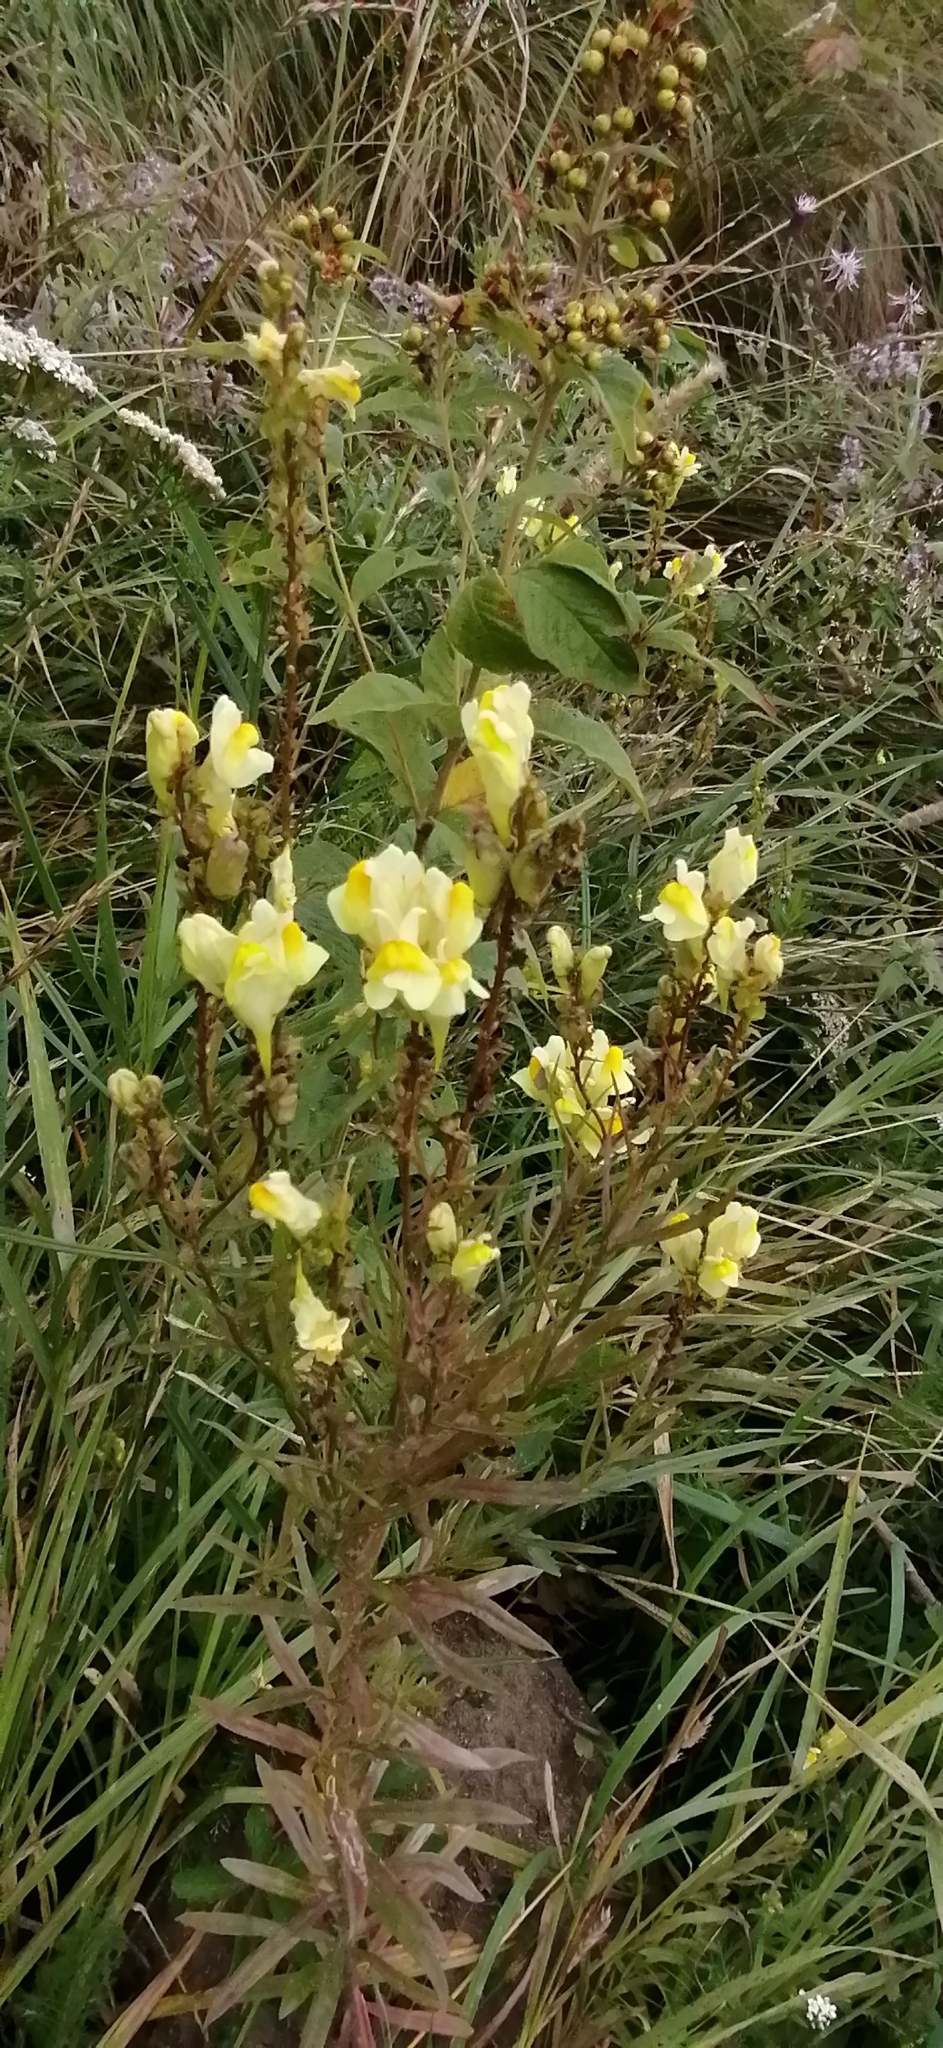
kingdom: Plantae
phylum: Tracheophyta
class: Magnoliopsida
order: Lamiales
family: Plantaginaceae
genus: Linaria
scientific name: Linaria vulgaris
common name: Butter and eggs
